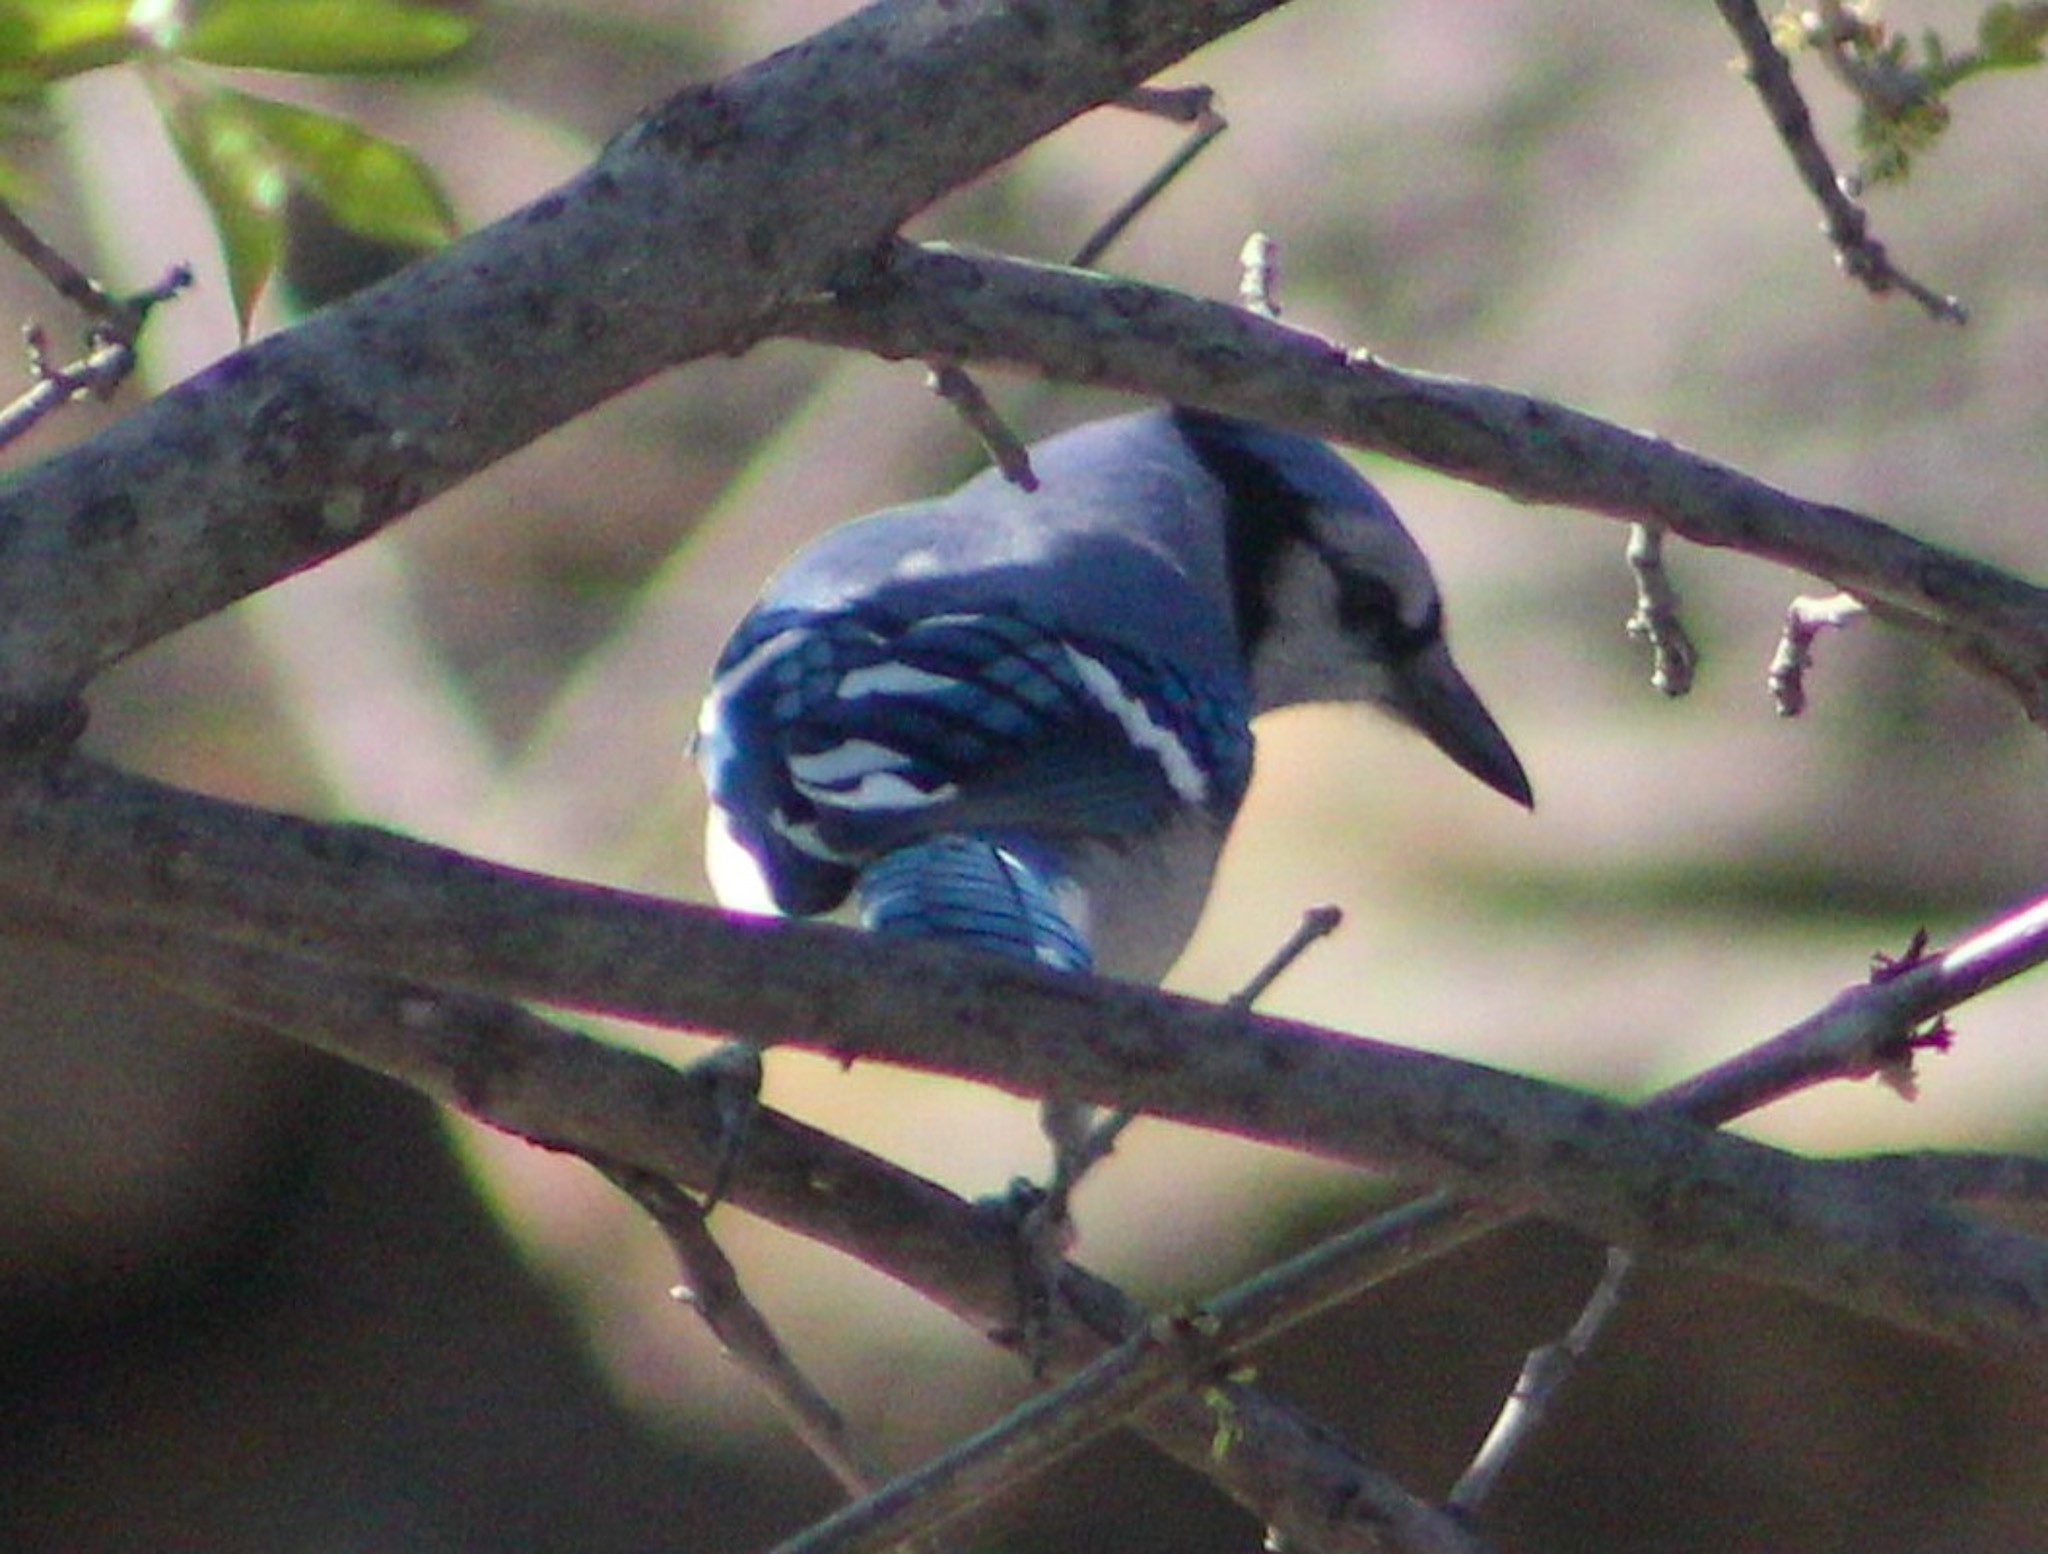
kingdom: Animalia
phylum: Chordata
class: Aves
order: Passeriformes
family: Corvidae
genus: Cyanocitta
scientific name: Cyanocitta cristata
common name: Blue jay
